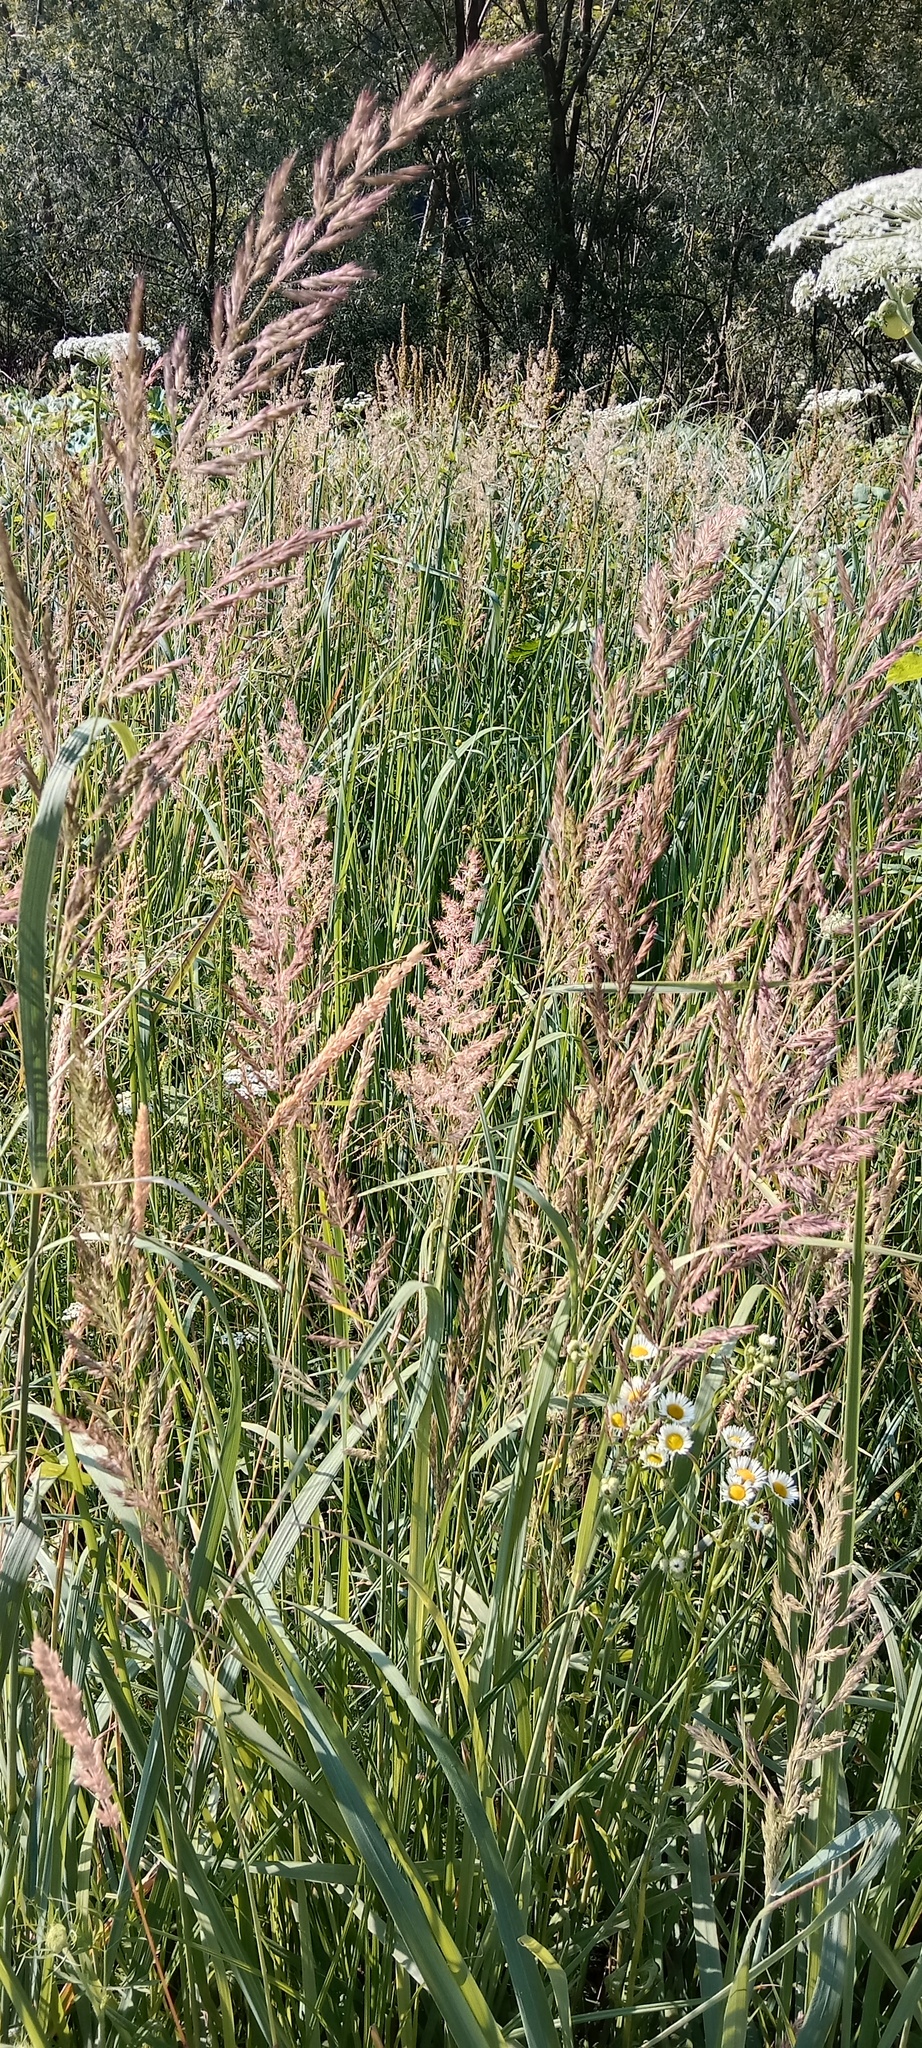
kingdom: Plantae
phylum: Tracheophyta
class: Liliopsida
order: Poales
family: Poaceae
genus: Calamagrostis
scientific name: Calamagrostis epigejos
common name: Wood small-reed
